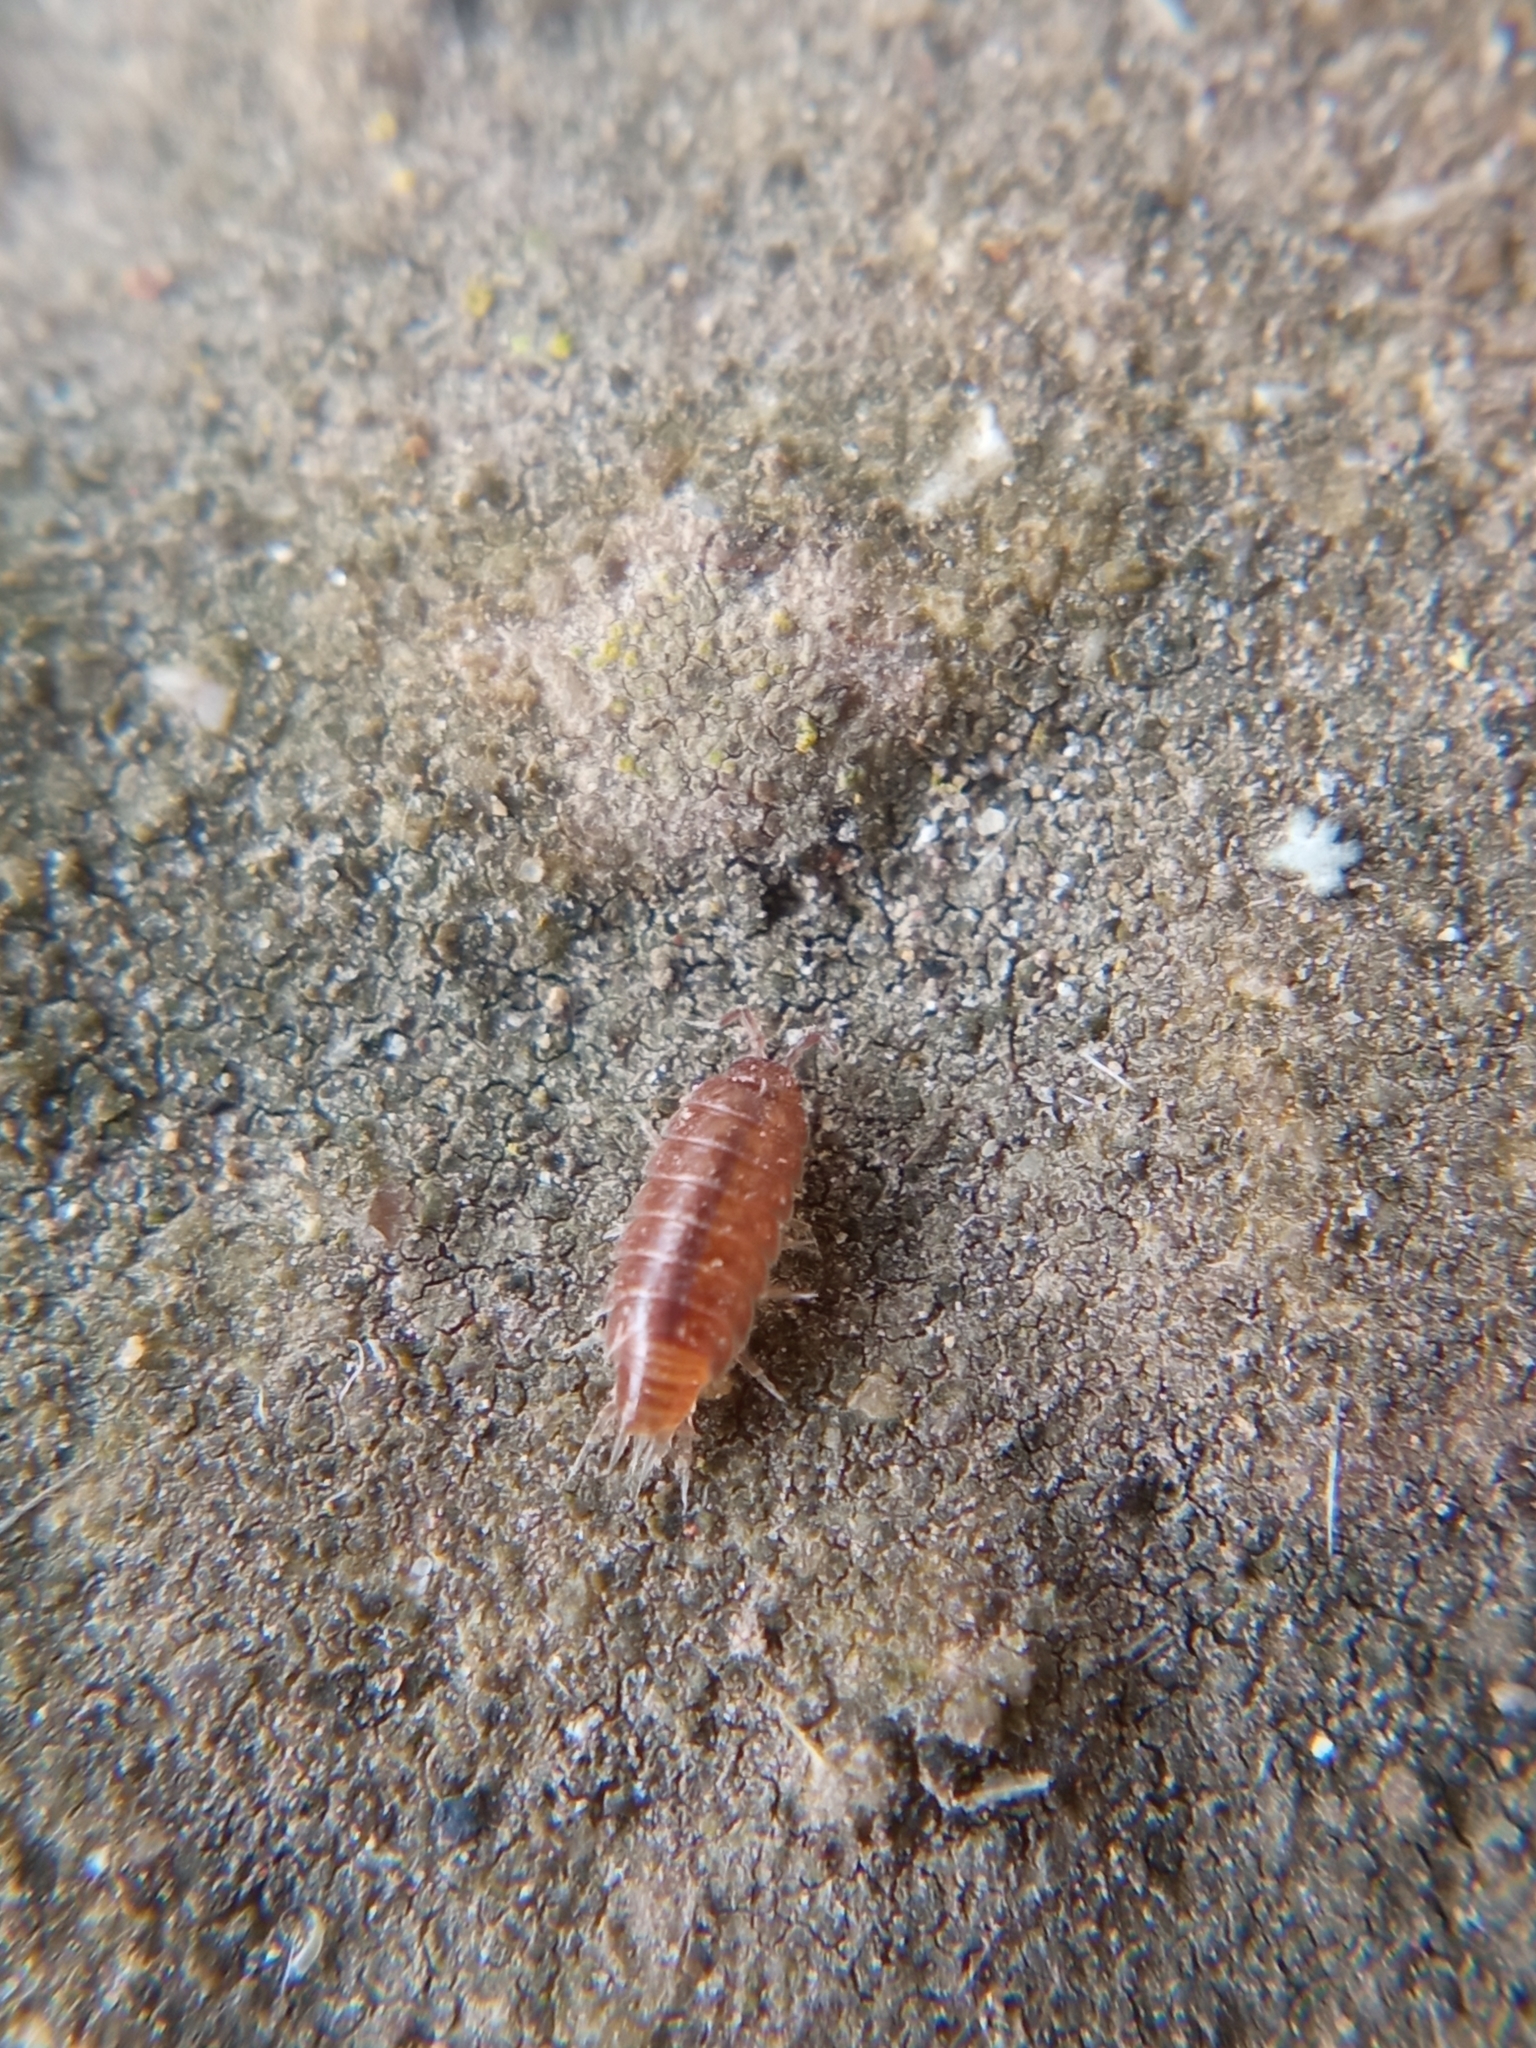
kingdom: Animalia
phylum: Arthropoda
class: Malacostraca
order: Isopoda
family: Trichoniscidae
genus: Trichoniscus
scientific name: Trichoniscus
